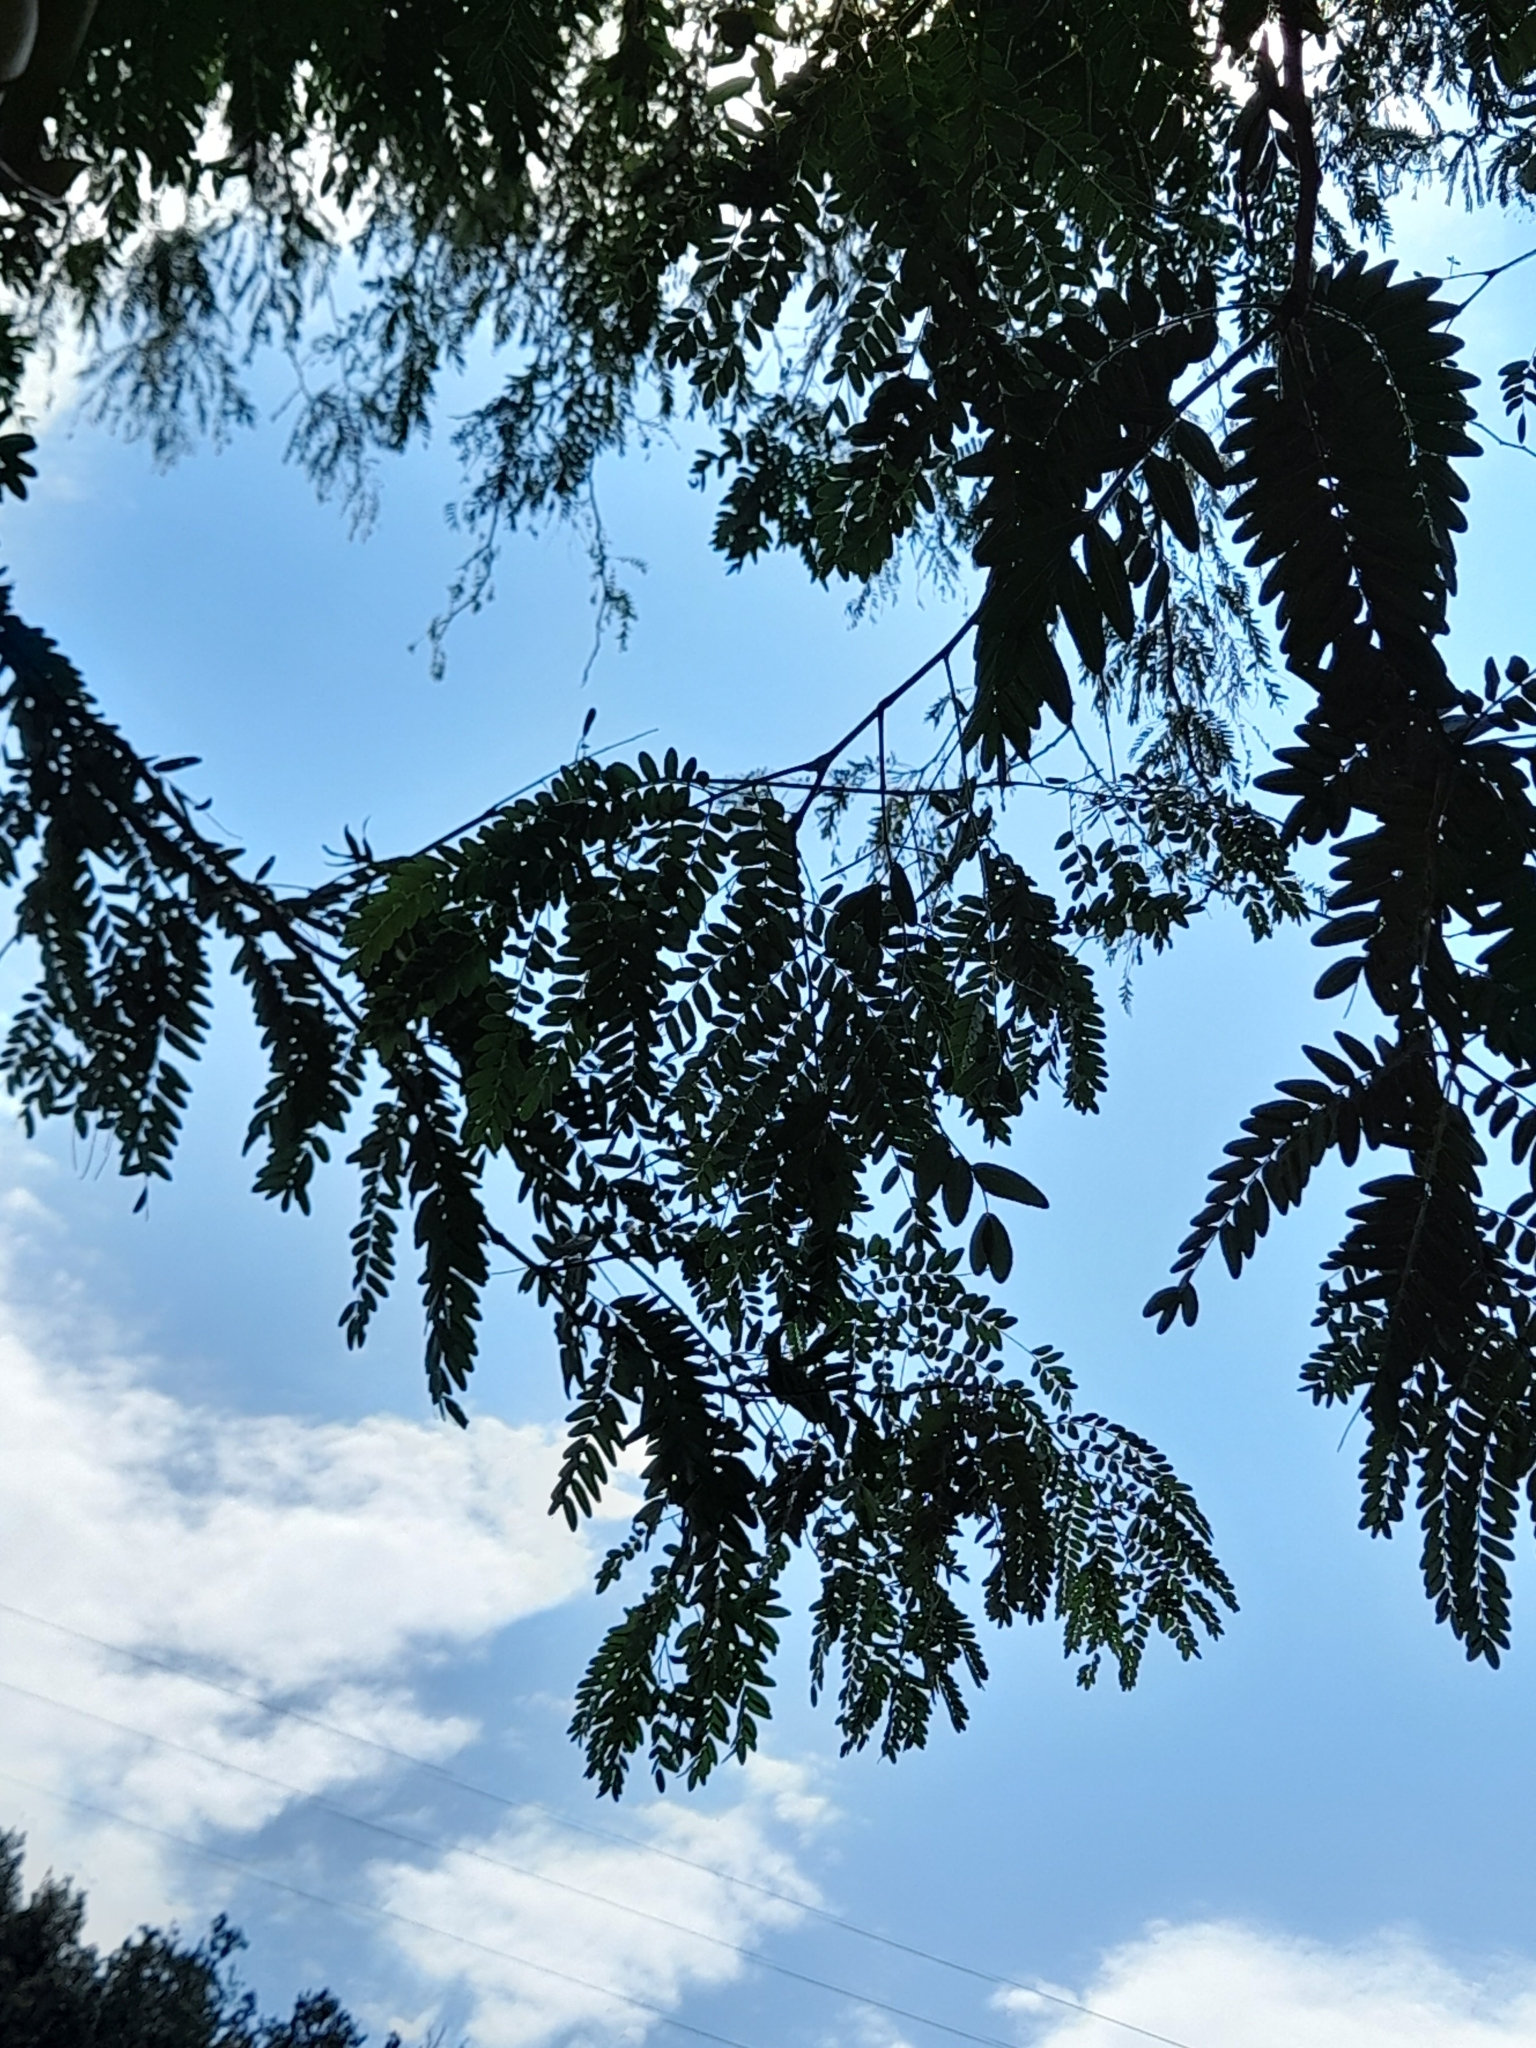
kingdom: Plantae
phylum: Tracheophyta
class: Magnoliopsida
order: Fabales
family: Fabaceae
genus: Gleditsia
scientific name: Gleditsia triacanthos
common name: Common honeylocust
